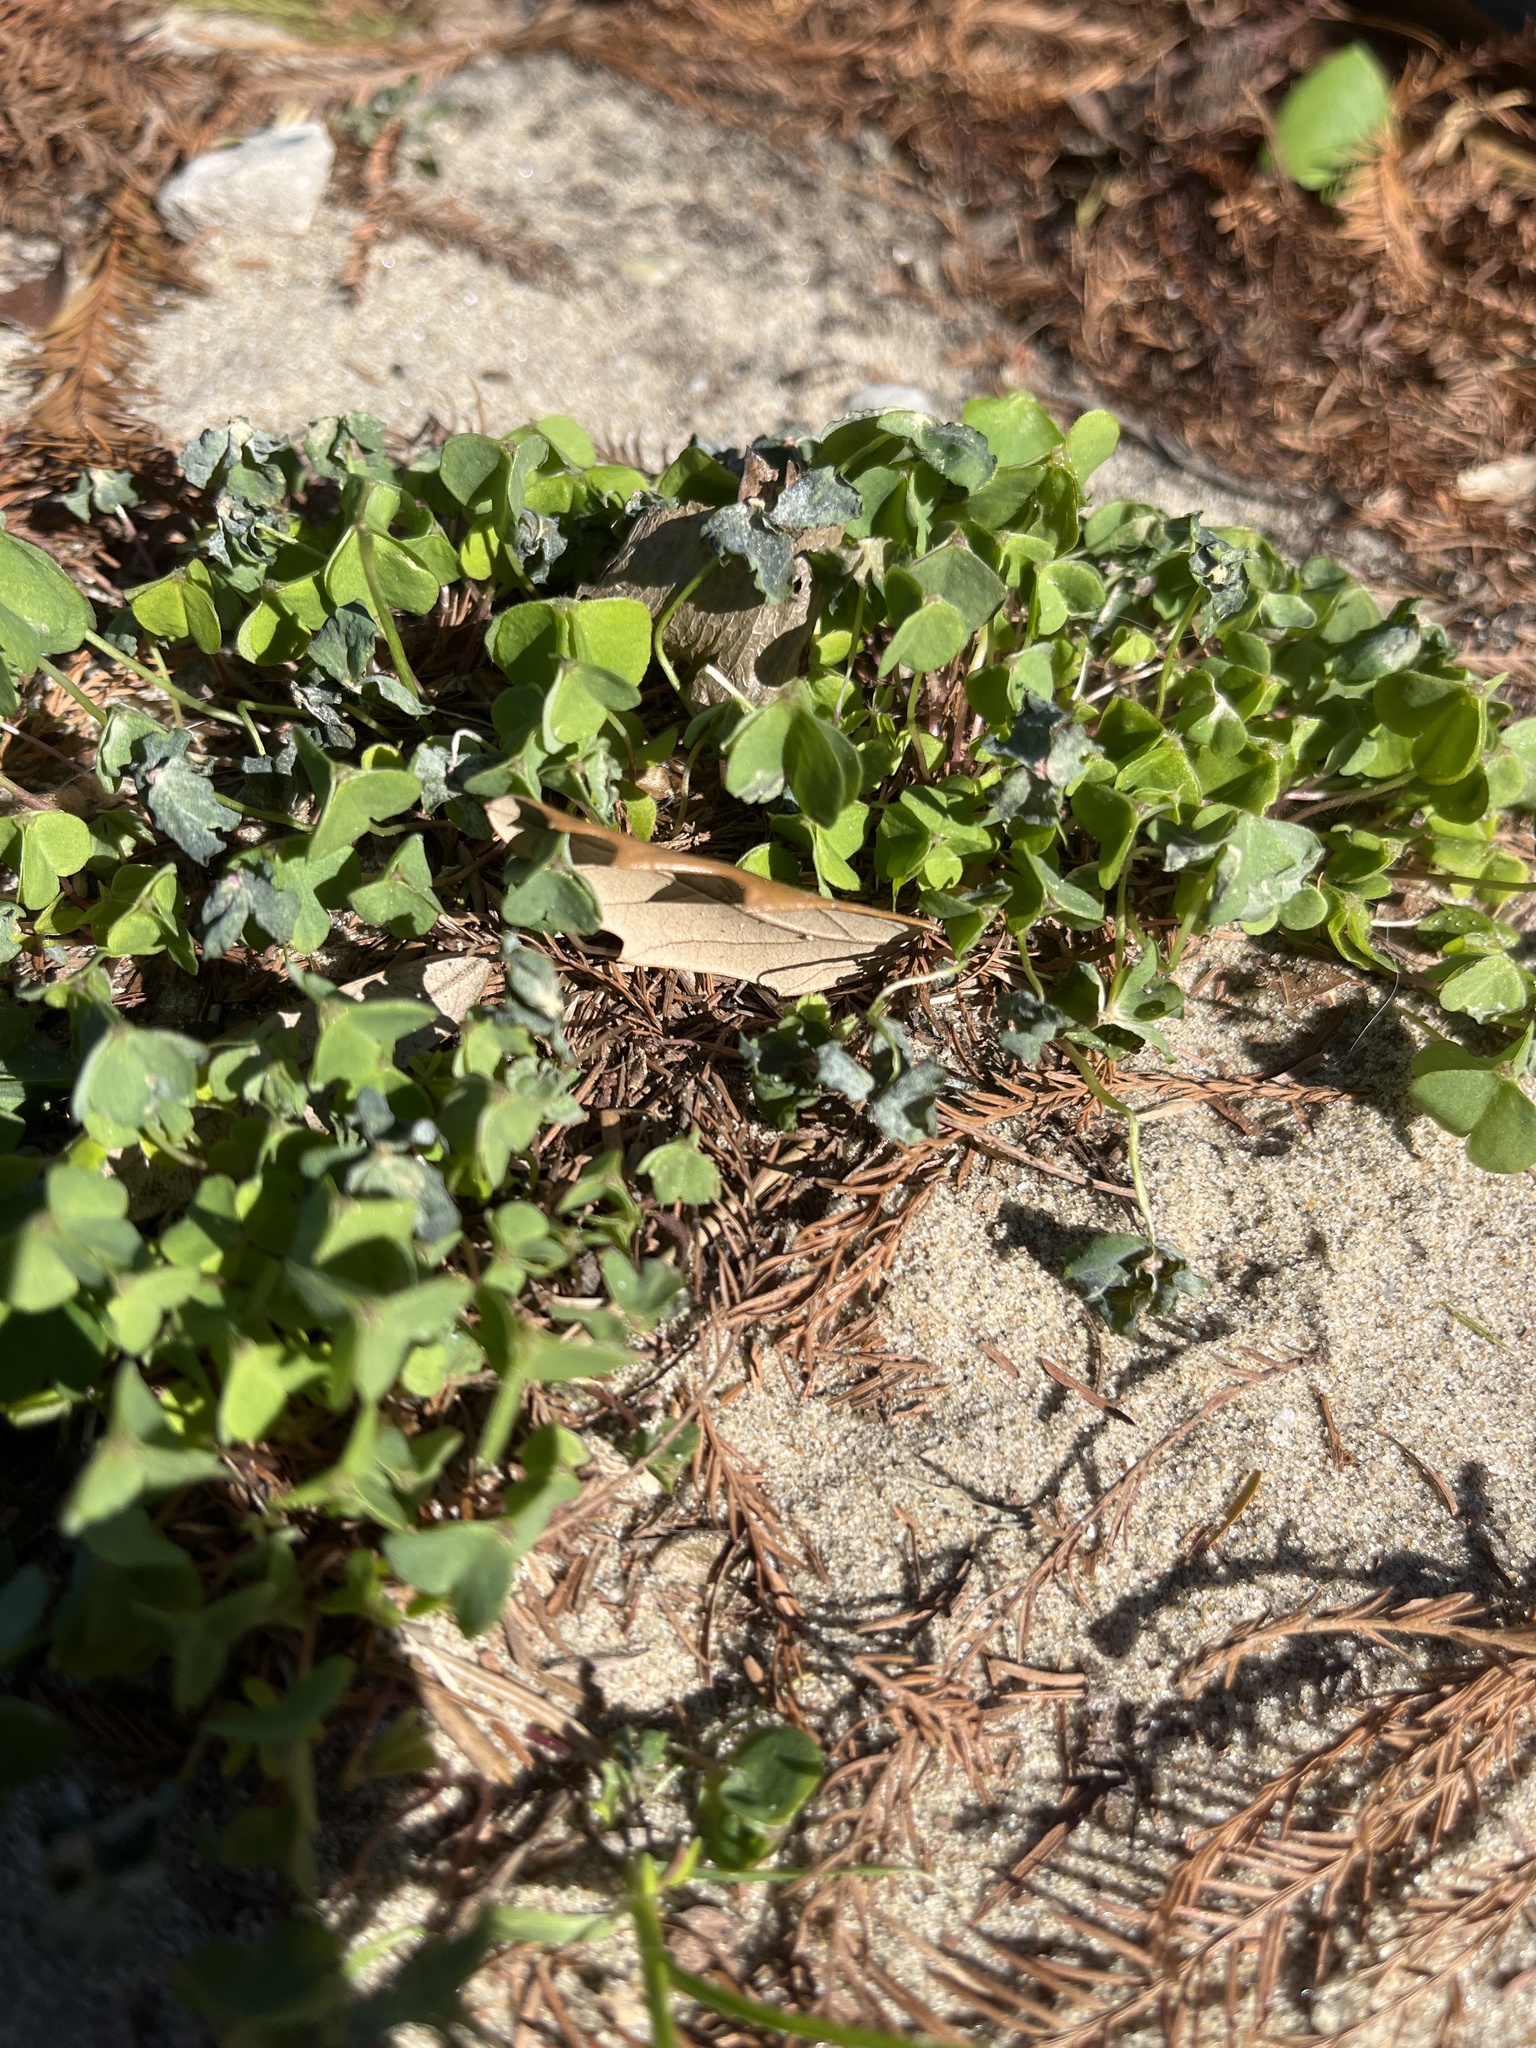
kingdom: Plantae
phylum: Tracheophyta
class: Magnoliopsida
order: Oxalidales
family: Oxalidaceae
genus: Oxalis
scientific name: Oxalis
